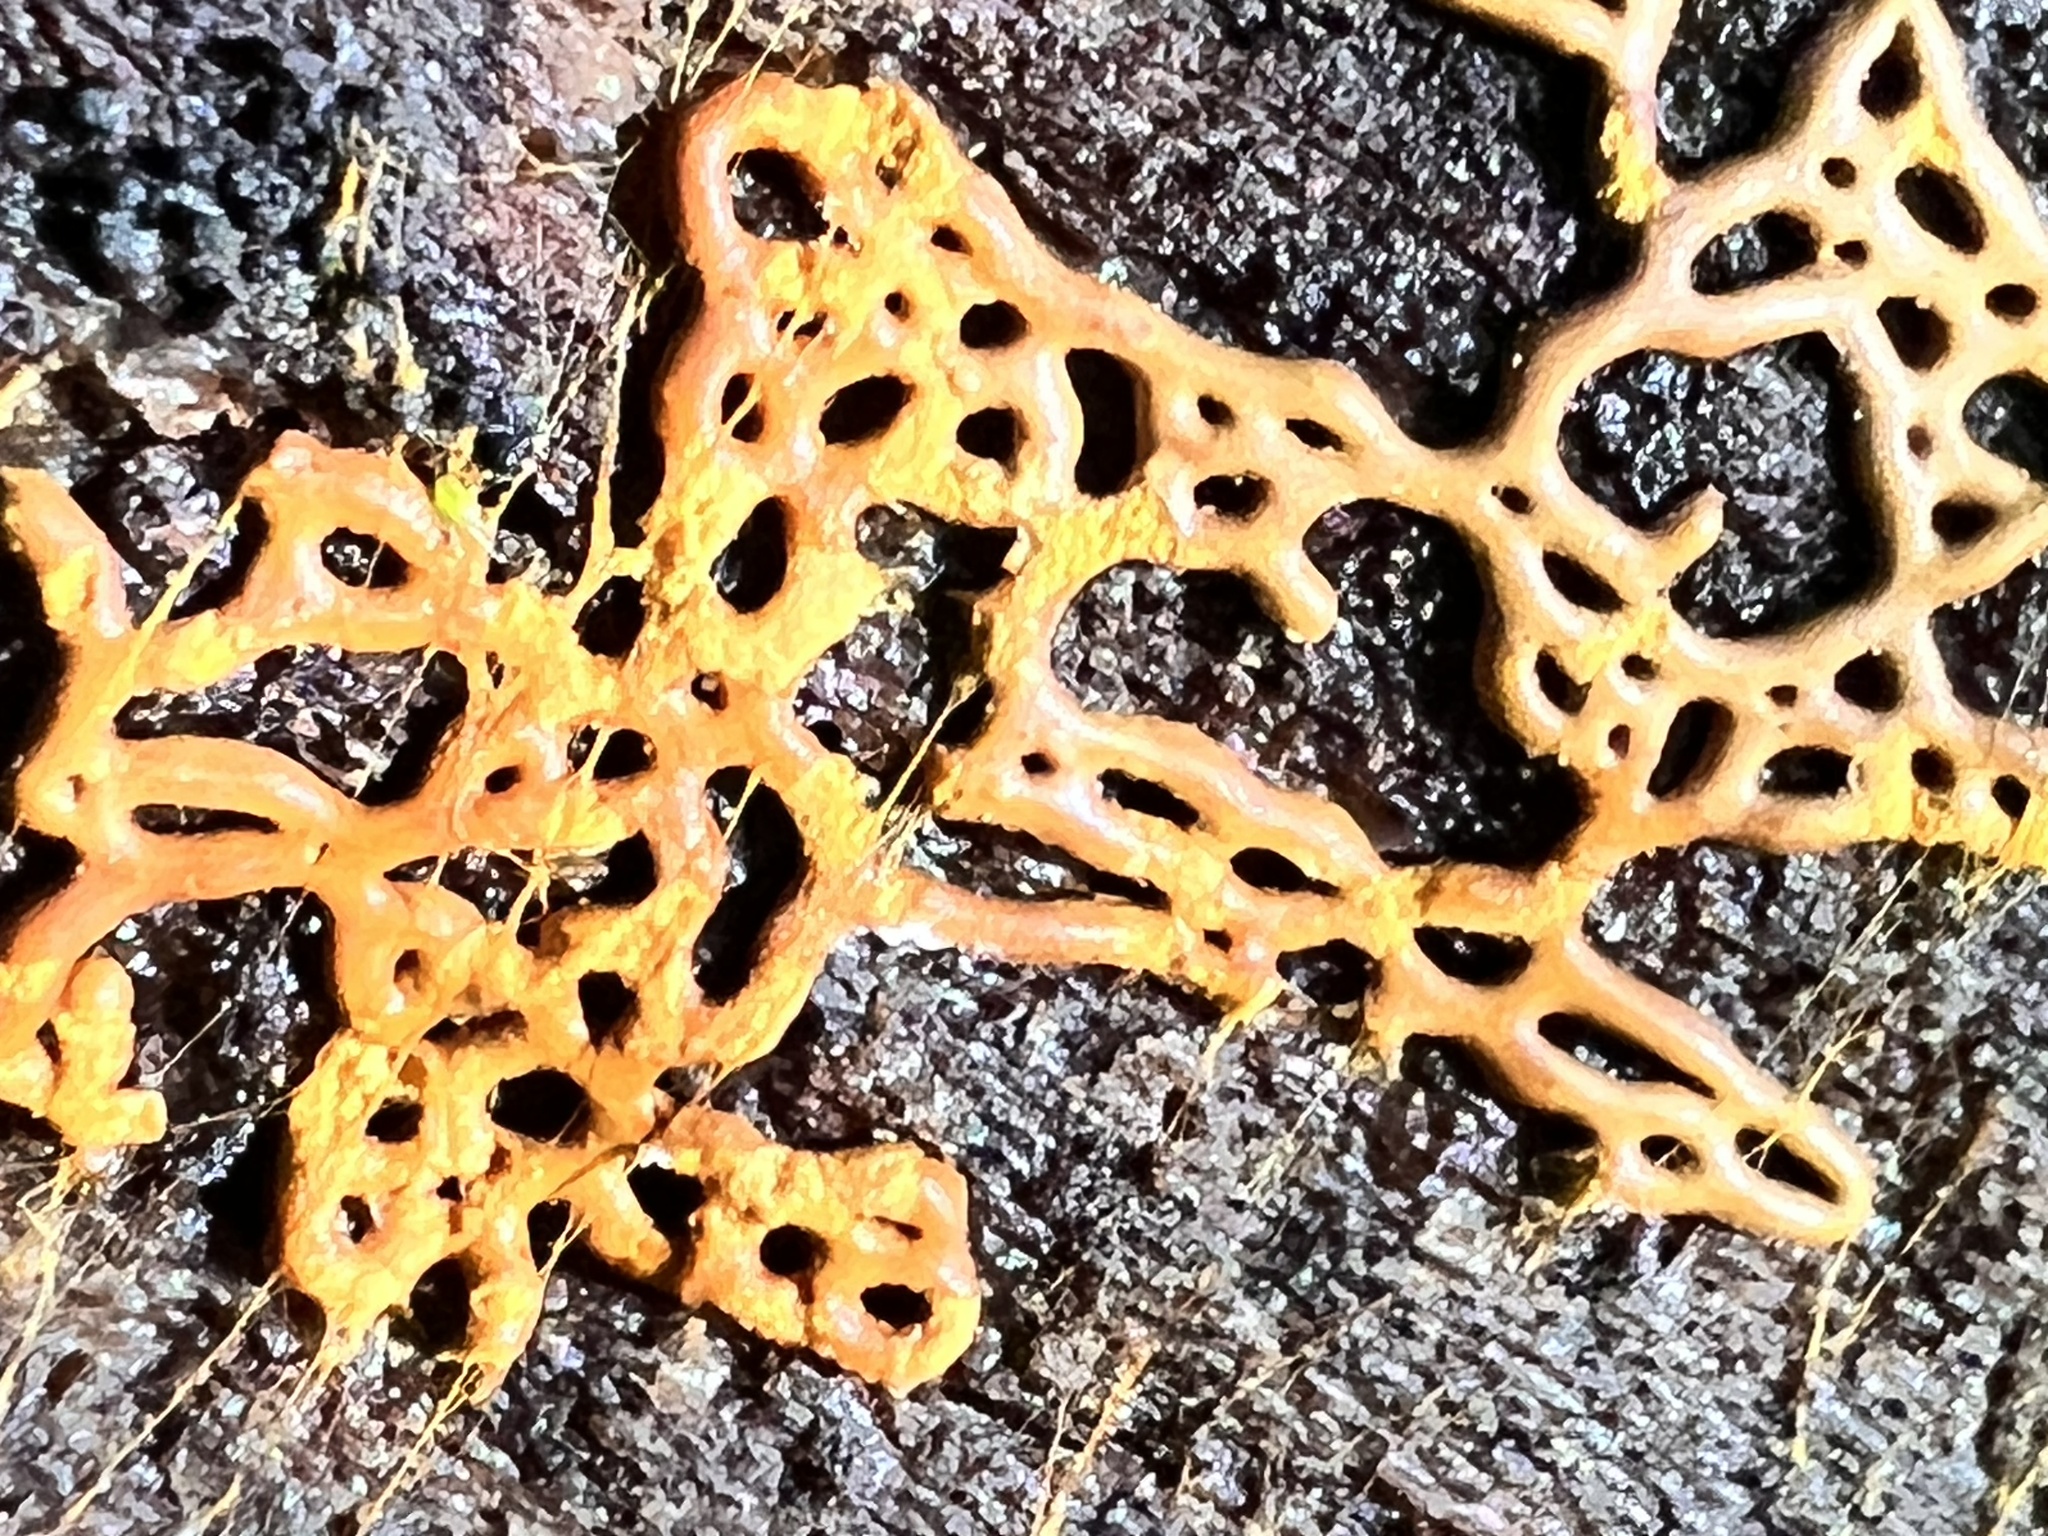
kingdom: Protozoa
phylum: Mycetozoa
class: Myxomycetes
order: Trichiales
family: Arcyriaceae
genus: Hemitrichia
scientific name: Hemitrichia serpula
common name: Pretzel slime mold
